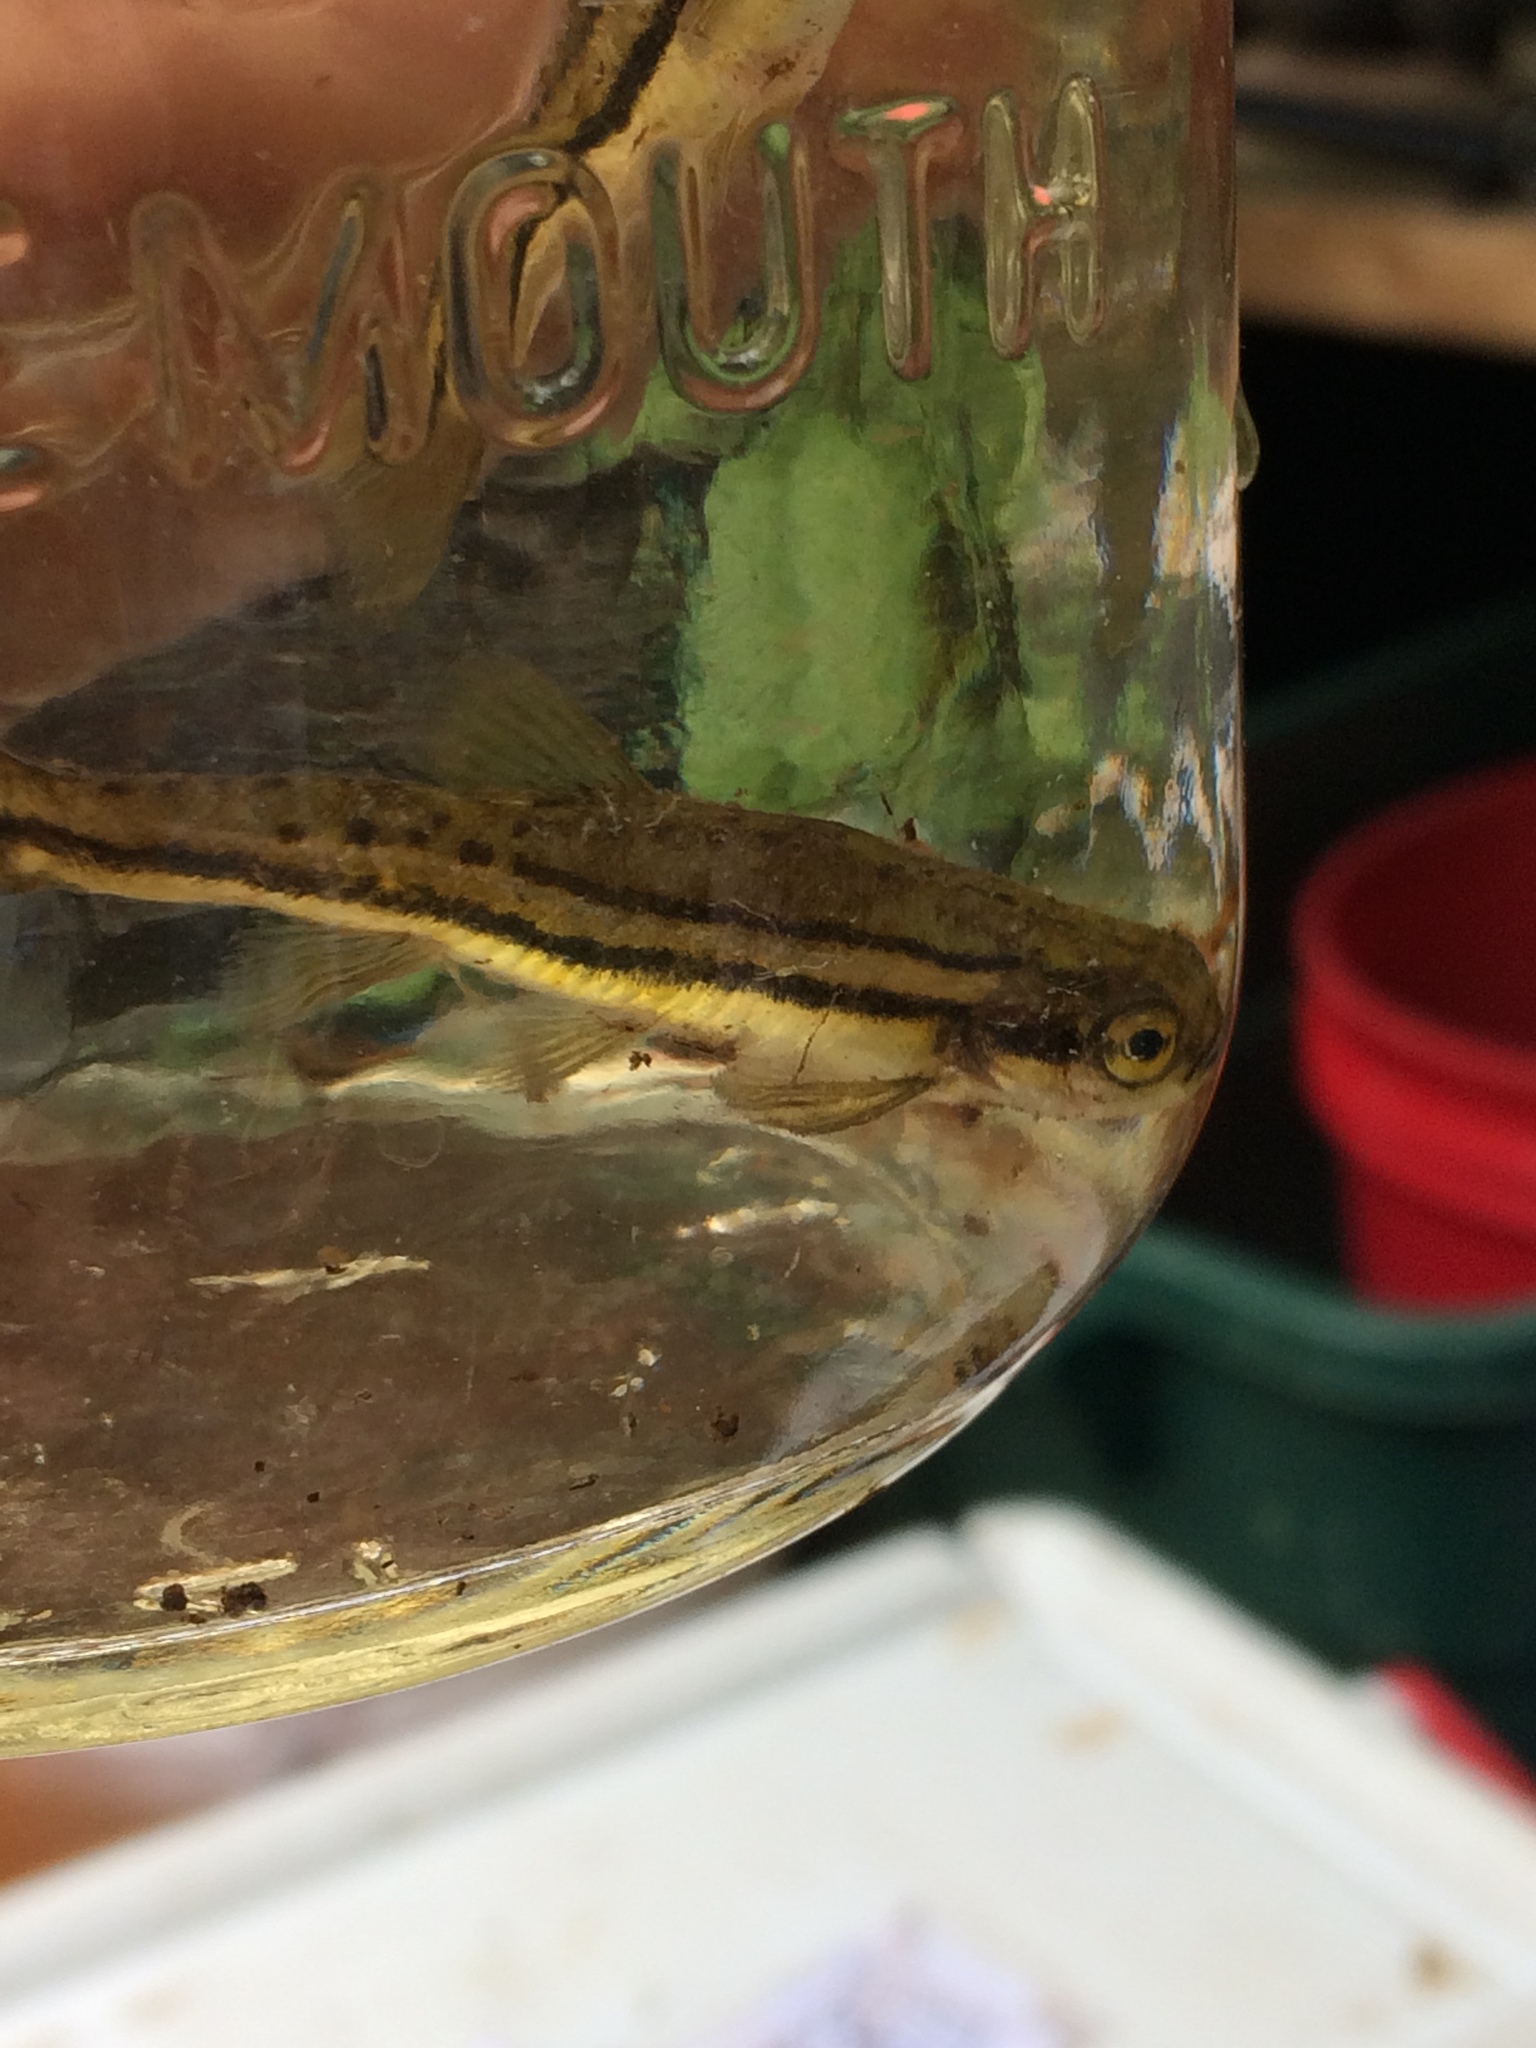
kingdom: Animalia
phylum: Chordata
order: Cypriniformes
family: Cyprinidae
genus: Chrosomus
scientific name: Chrosomus eos
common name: Northern redbelly dace
